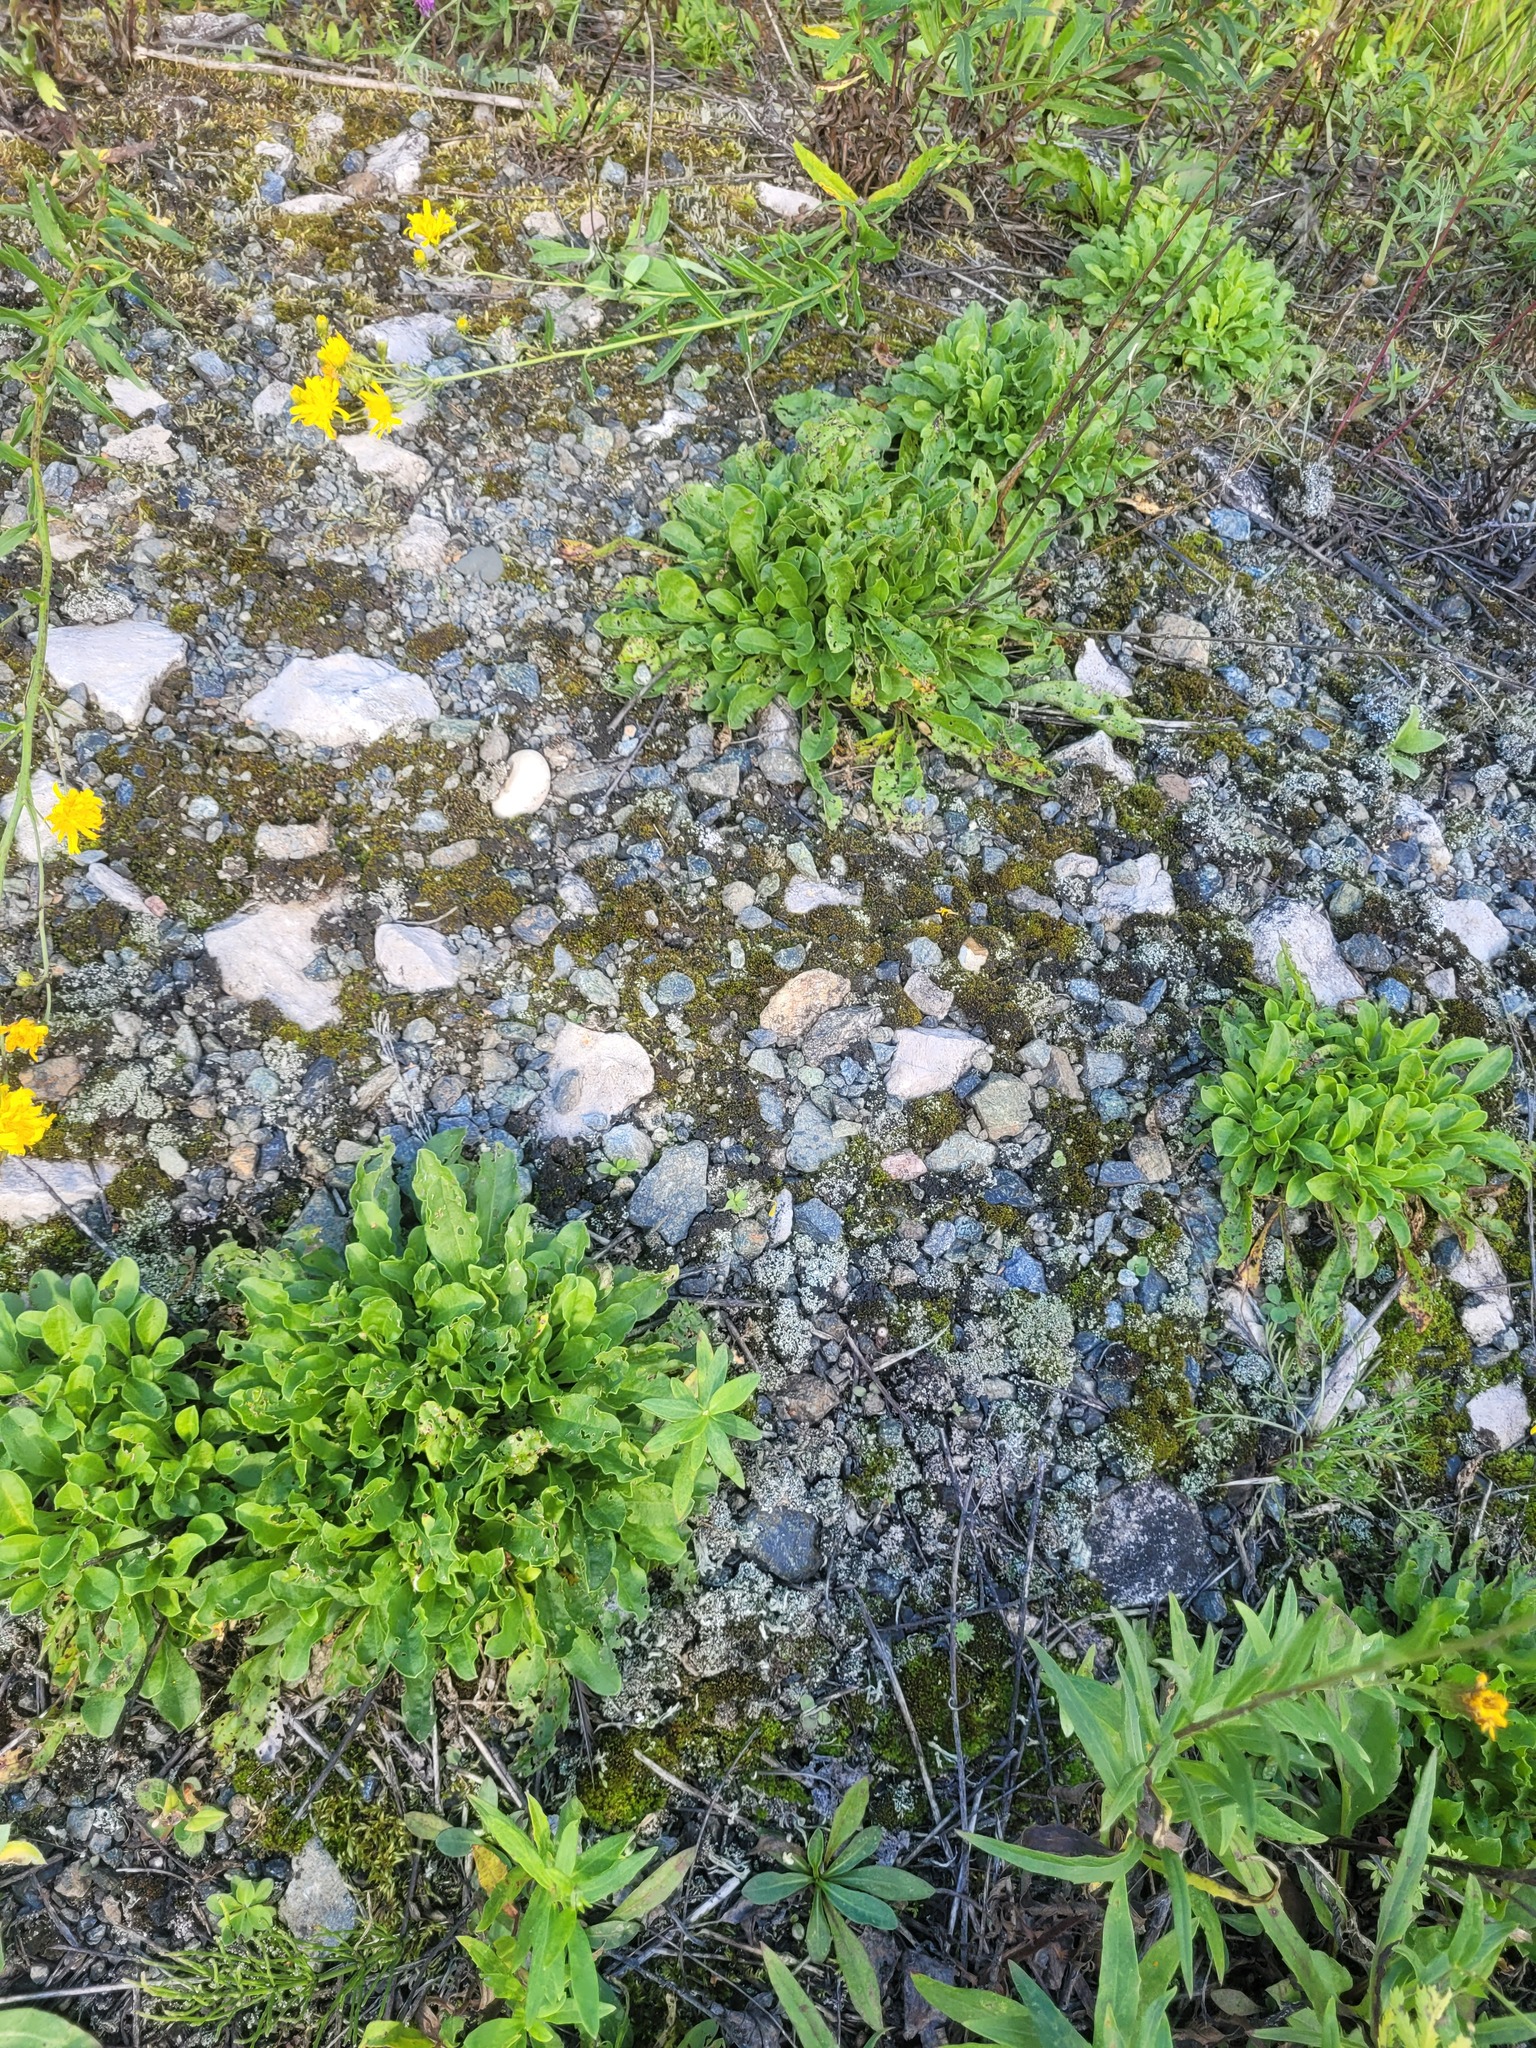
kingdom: Plantae
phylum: Tracheophyta
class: Magnoliopsida
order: Caryophyllales
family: Caryophyllaceae
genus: Silene
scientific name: Silene nutans
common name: Nottingham catchfly
